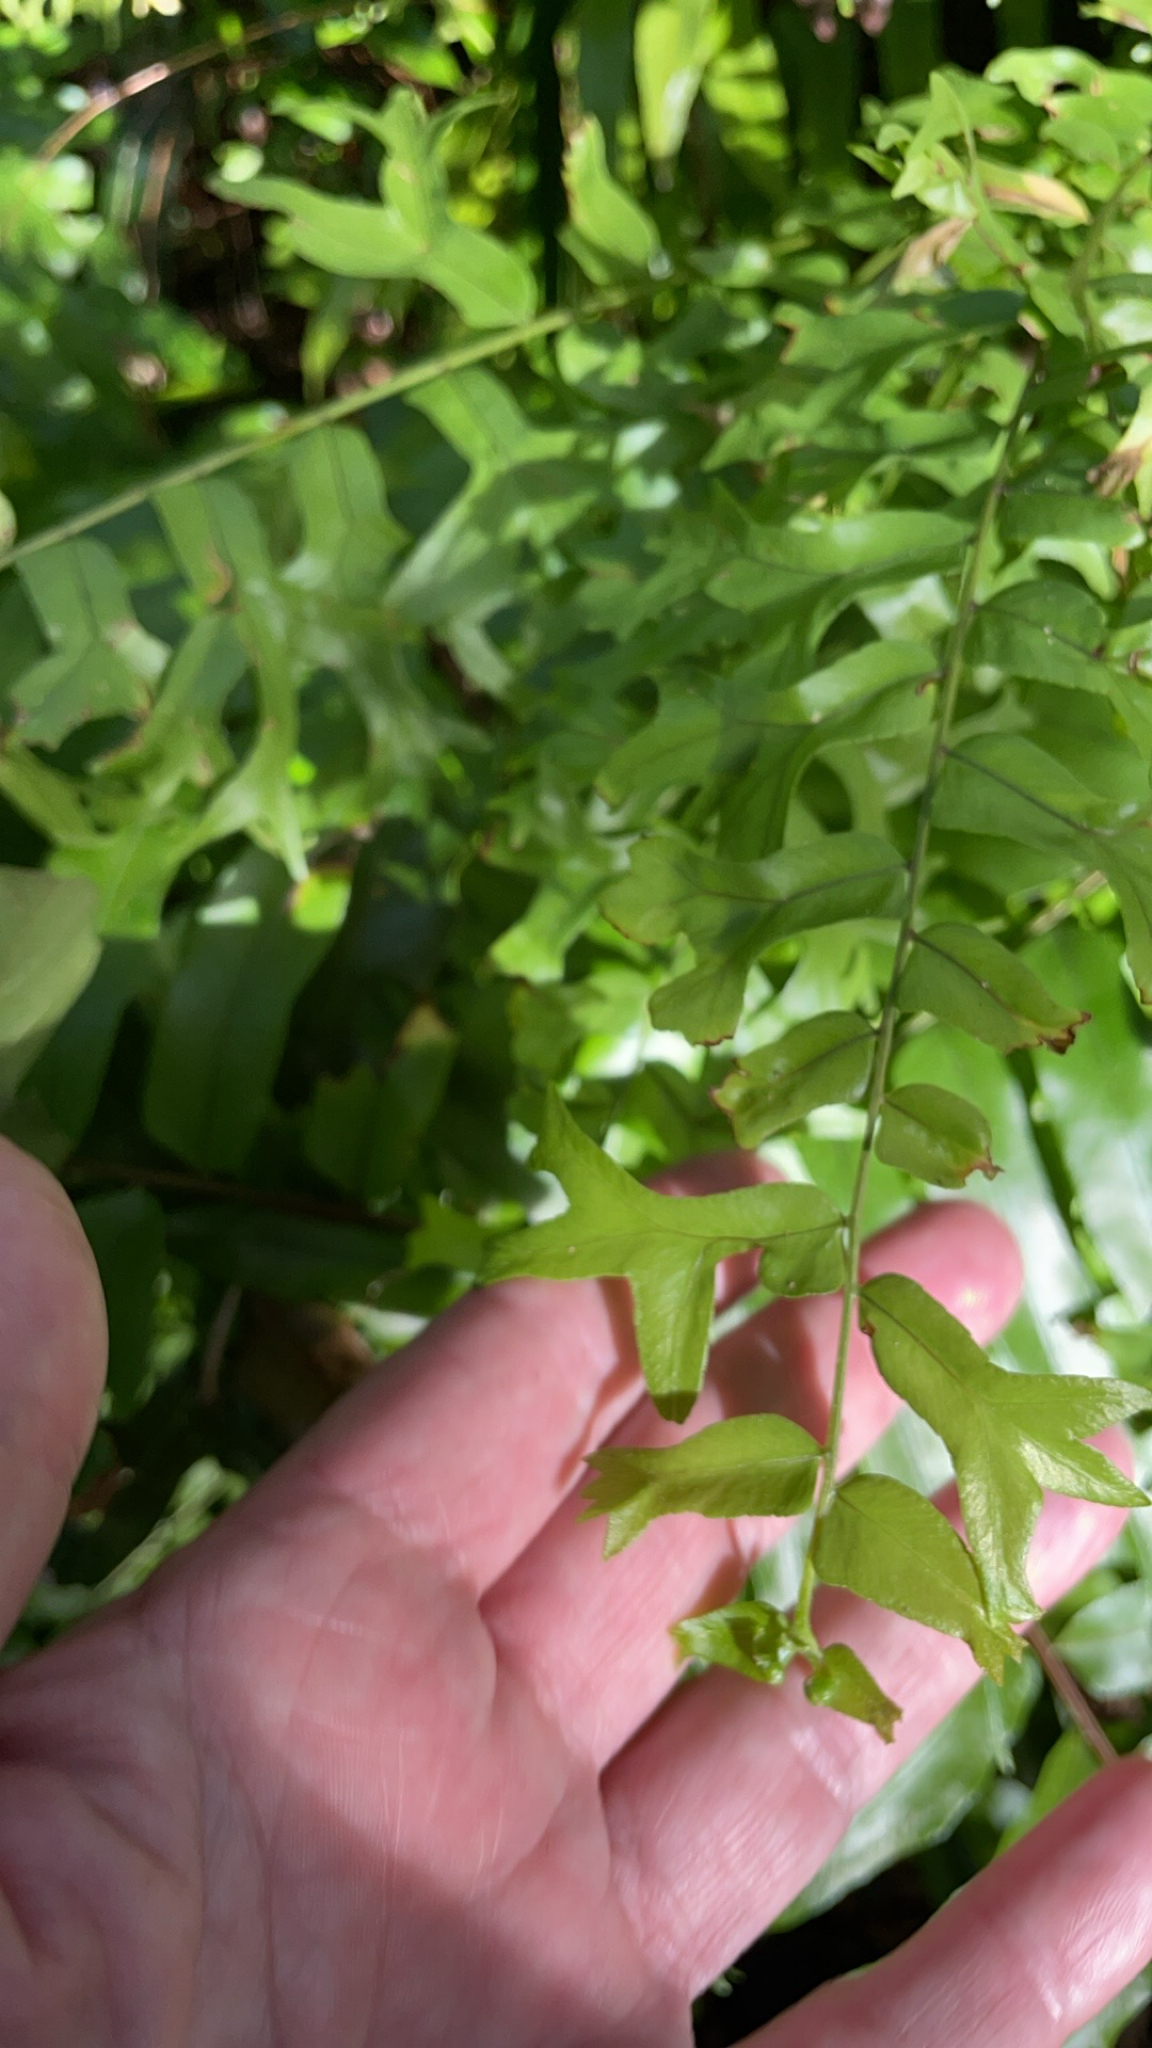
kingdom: Plantae
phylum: Tracheophyta
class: Polypodiopsida
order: Polypodiales
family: Nephrolepidaceae
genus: Nephrolepis
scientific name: Nephrolepis falcata
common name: Fishtail swordfern
